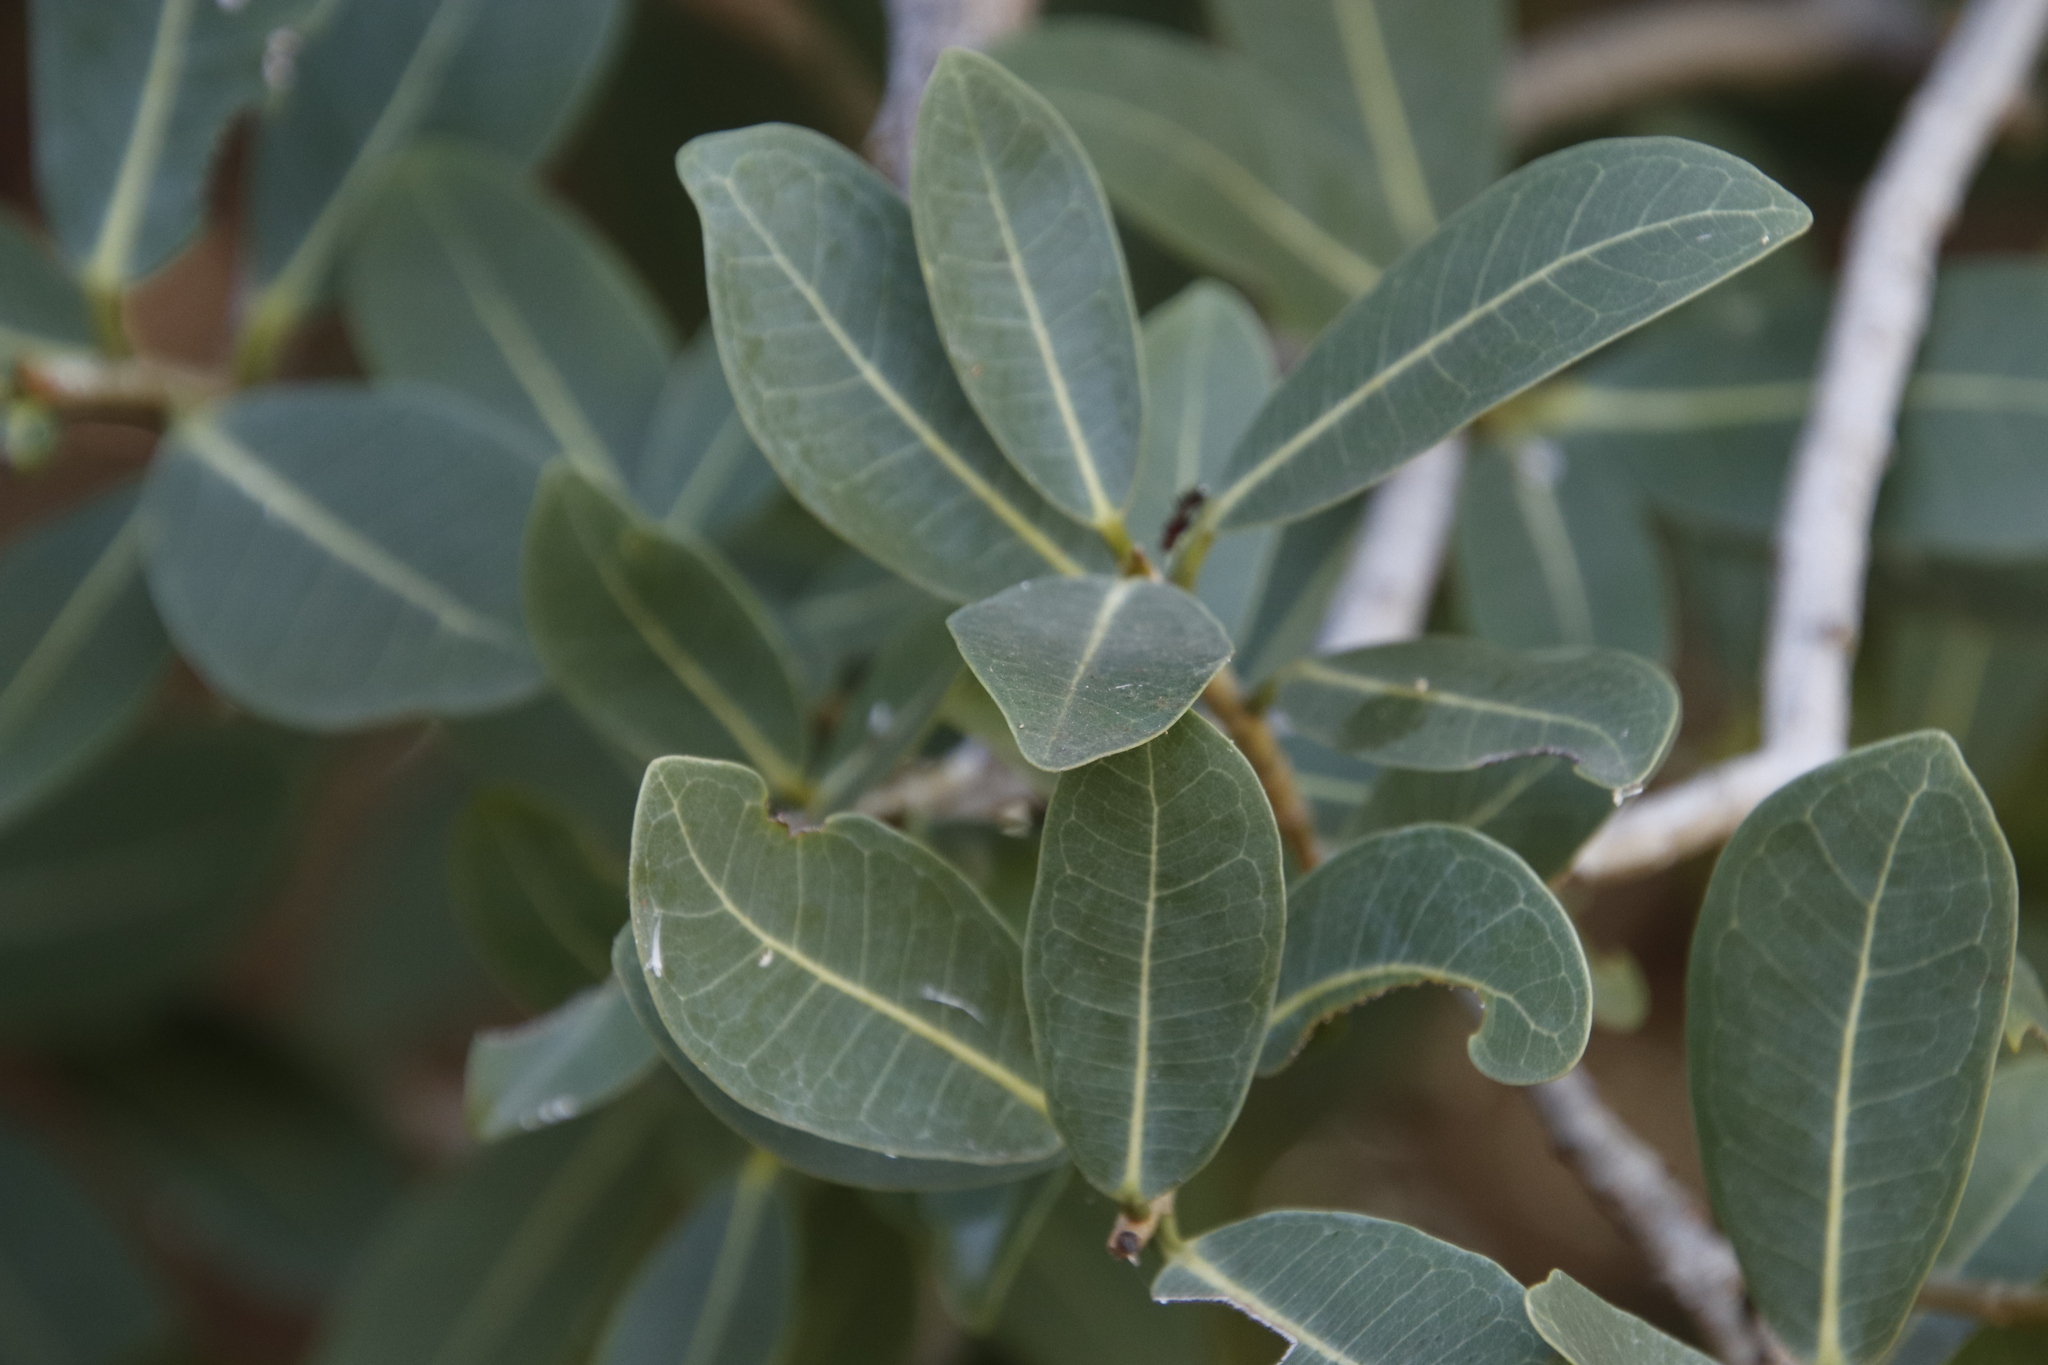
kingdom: Plantae
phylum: Tracheophyta
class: Magnoliopsida
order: Rosales
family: Moraceae
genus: Ficus
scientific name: Ficus ilicina
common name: Laurel rock fig
